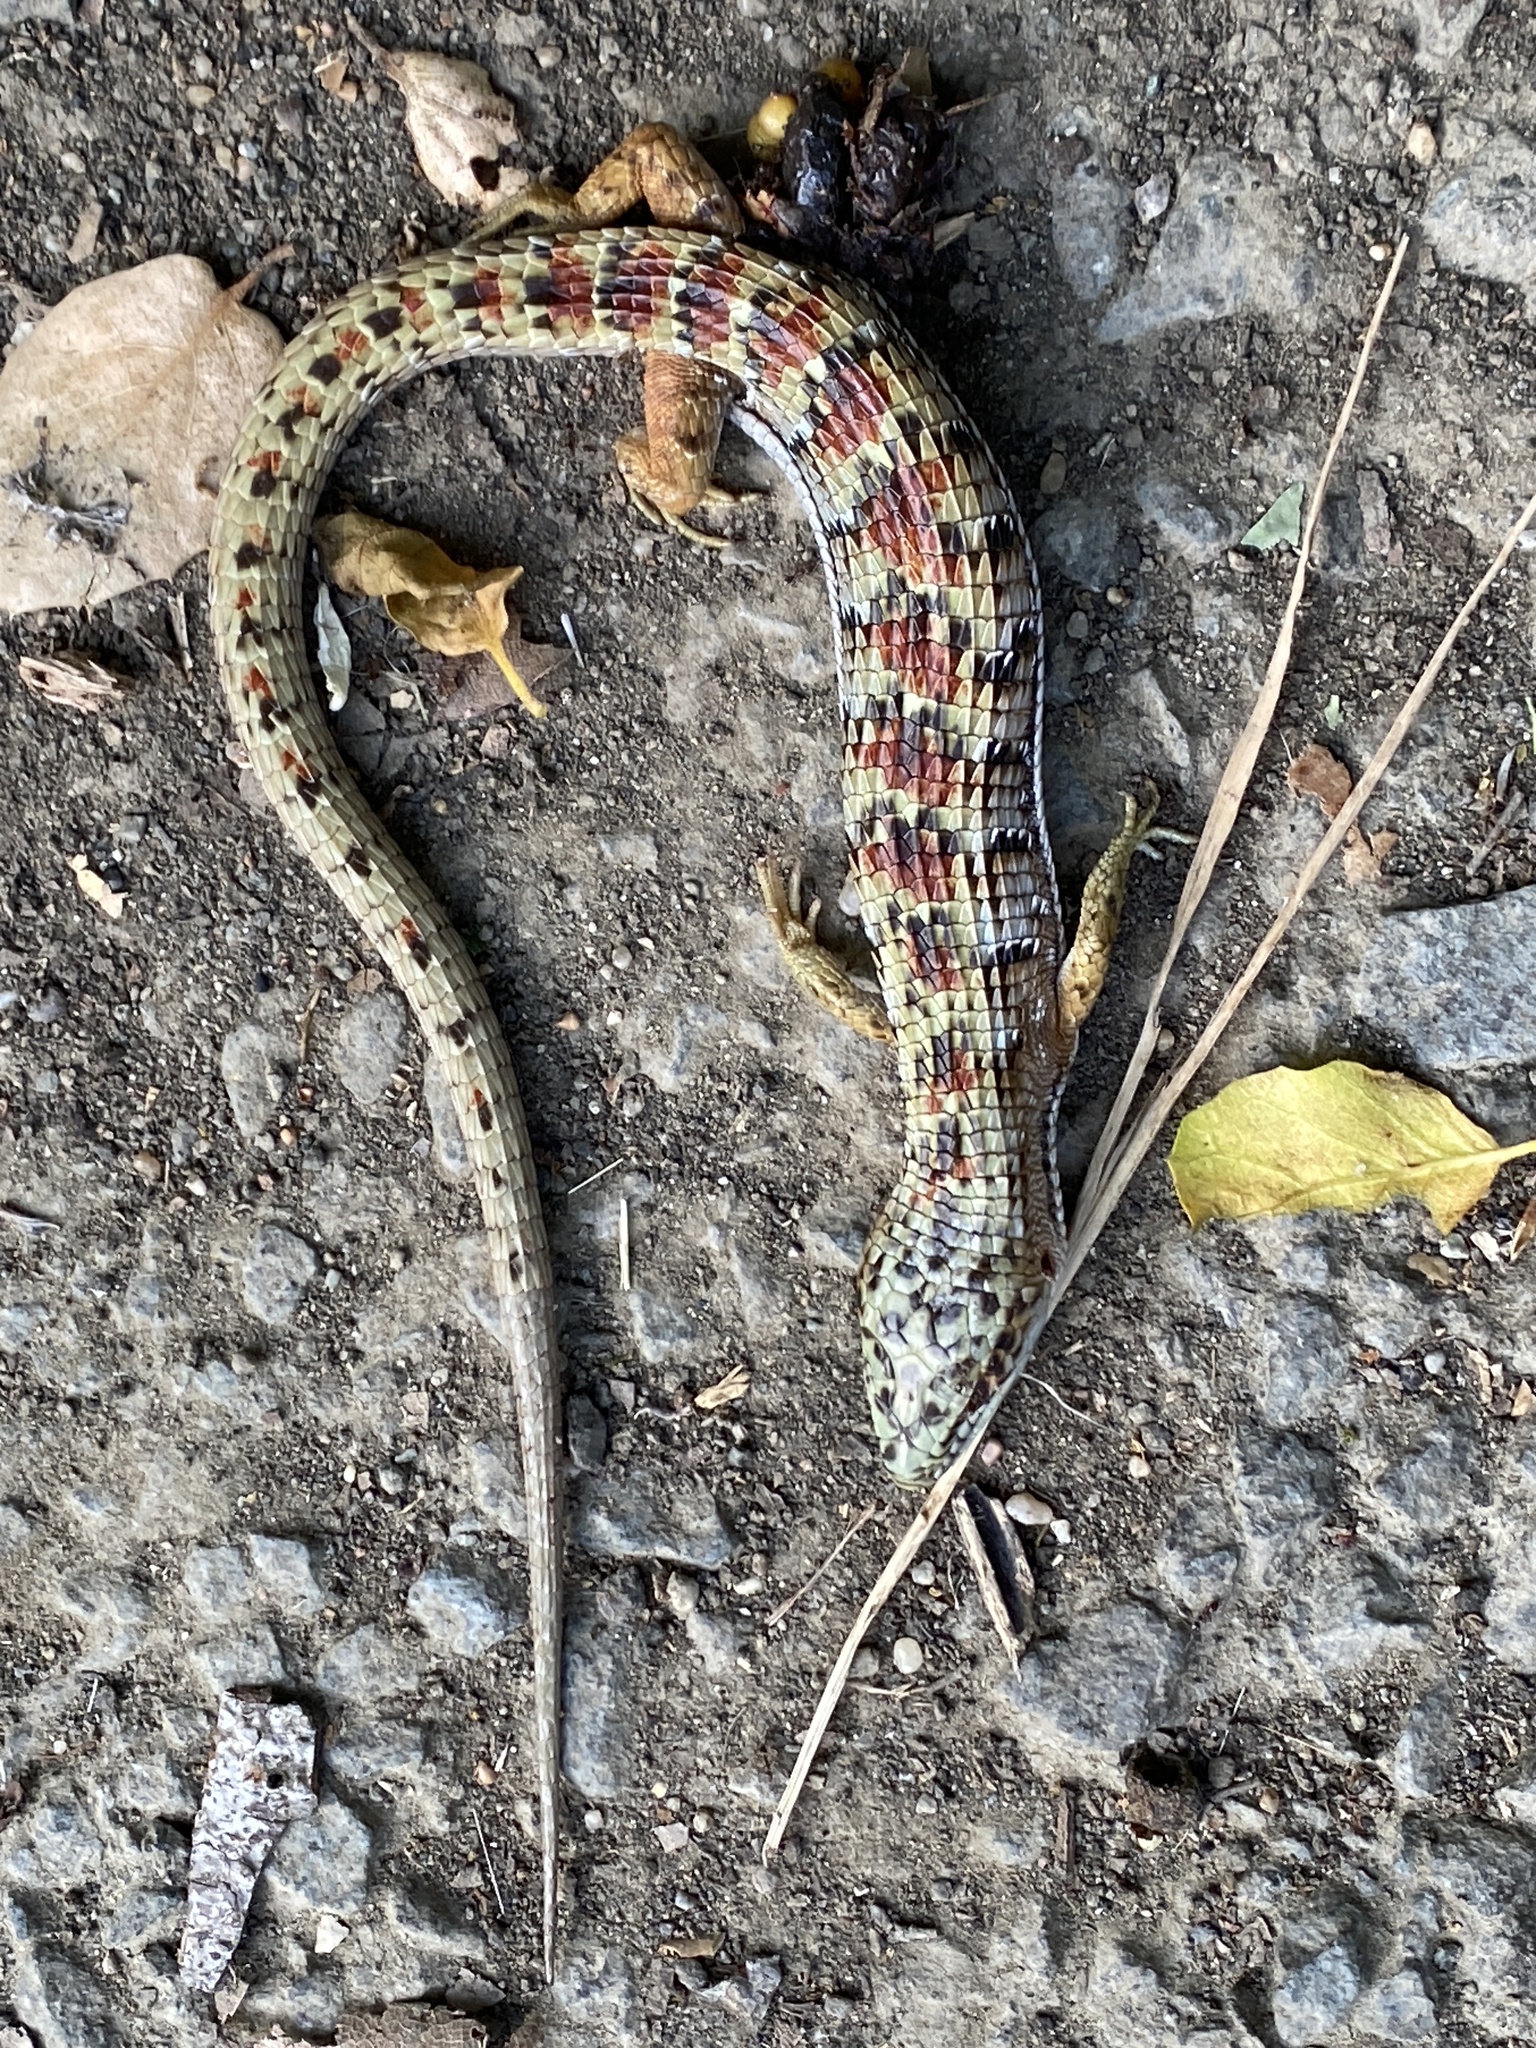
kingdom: Animalia
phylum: Chordata
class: Squamata
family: Anguidae
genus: Elgaria
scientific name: Elgaria multicarinata
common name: Southern alligator lizard
